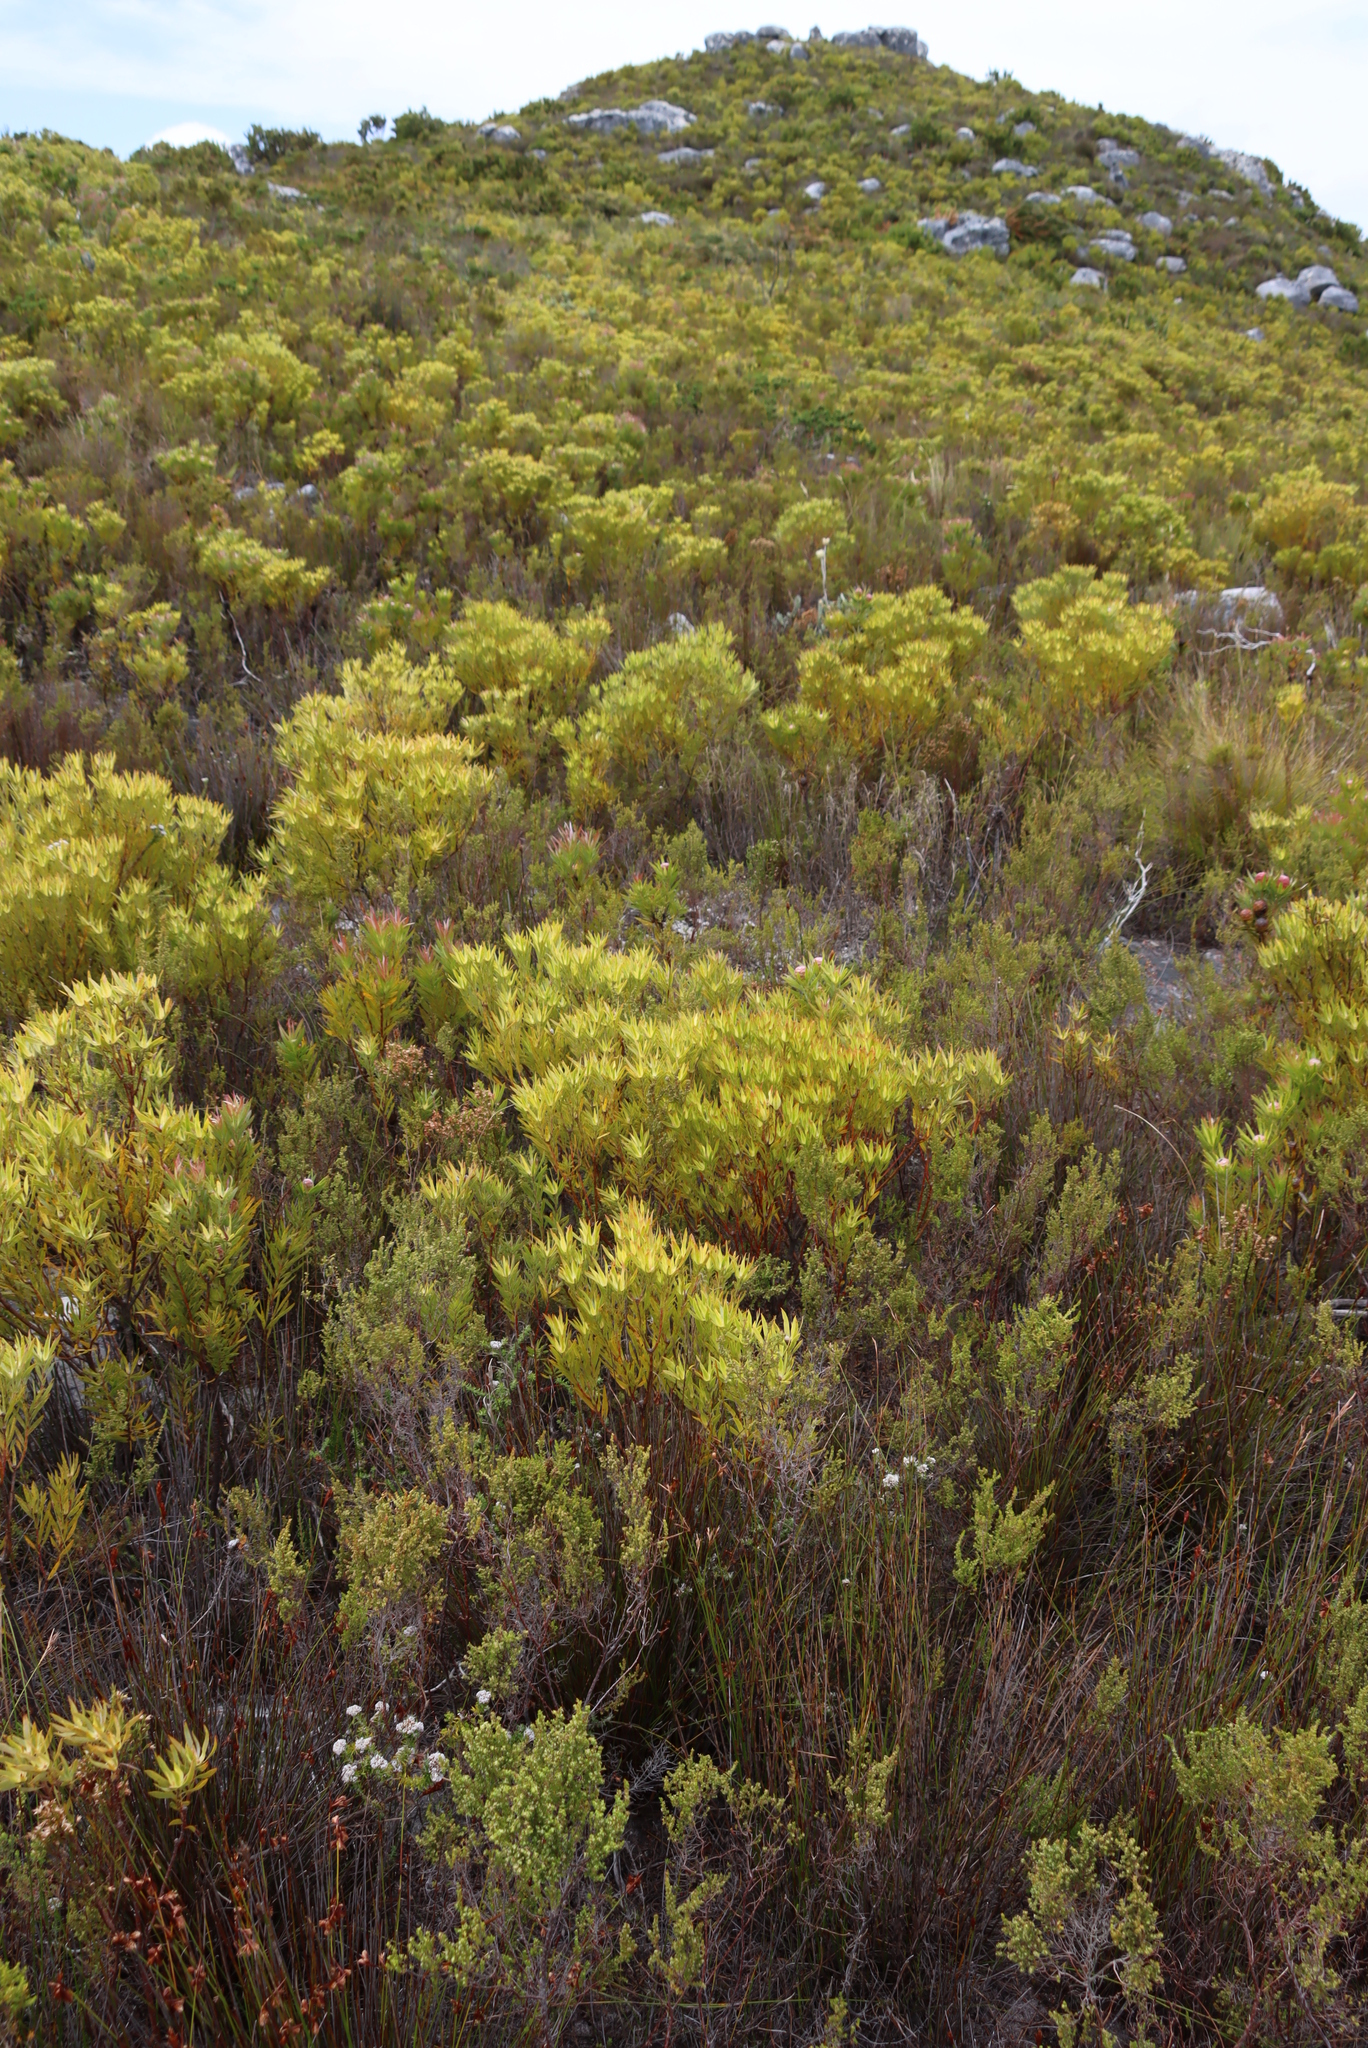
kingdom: Plantae
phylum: Tracheophyta
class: Magnoliopsida
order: Proteales
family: Proteaceae
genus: Leucadendron
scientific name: Leucadendron xanthoconus
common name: Sickle-leaf conebush
